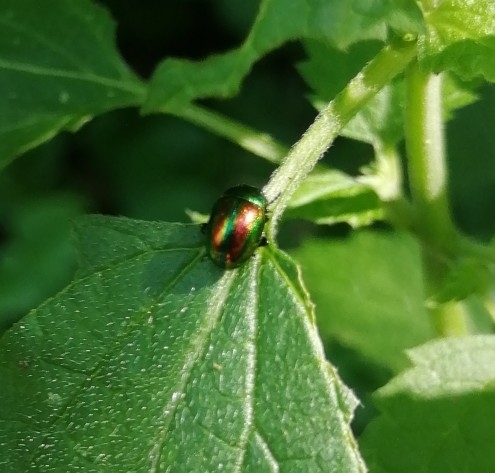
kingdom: Animalia
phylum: Arthropoda
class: Insecta
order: Coleoptera
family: Chrysomelidae
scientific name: Chrysomelidae
